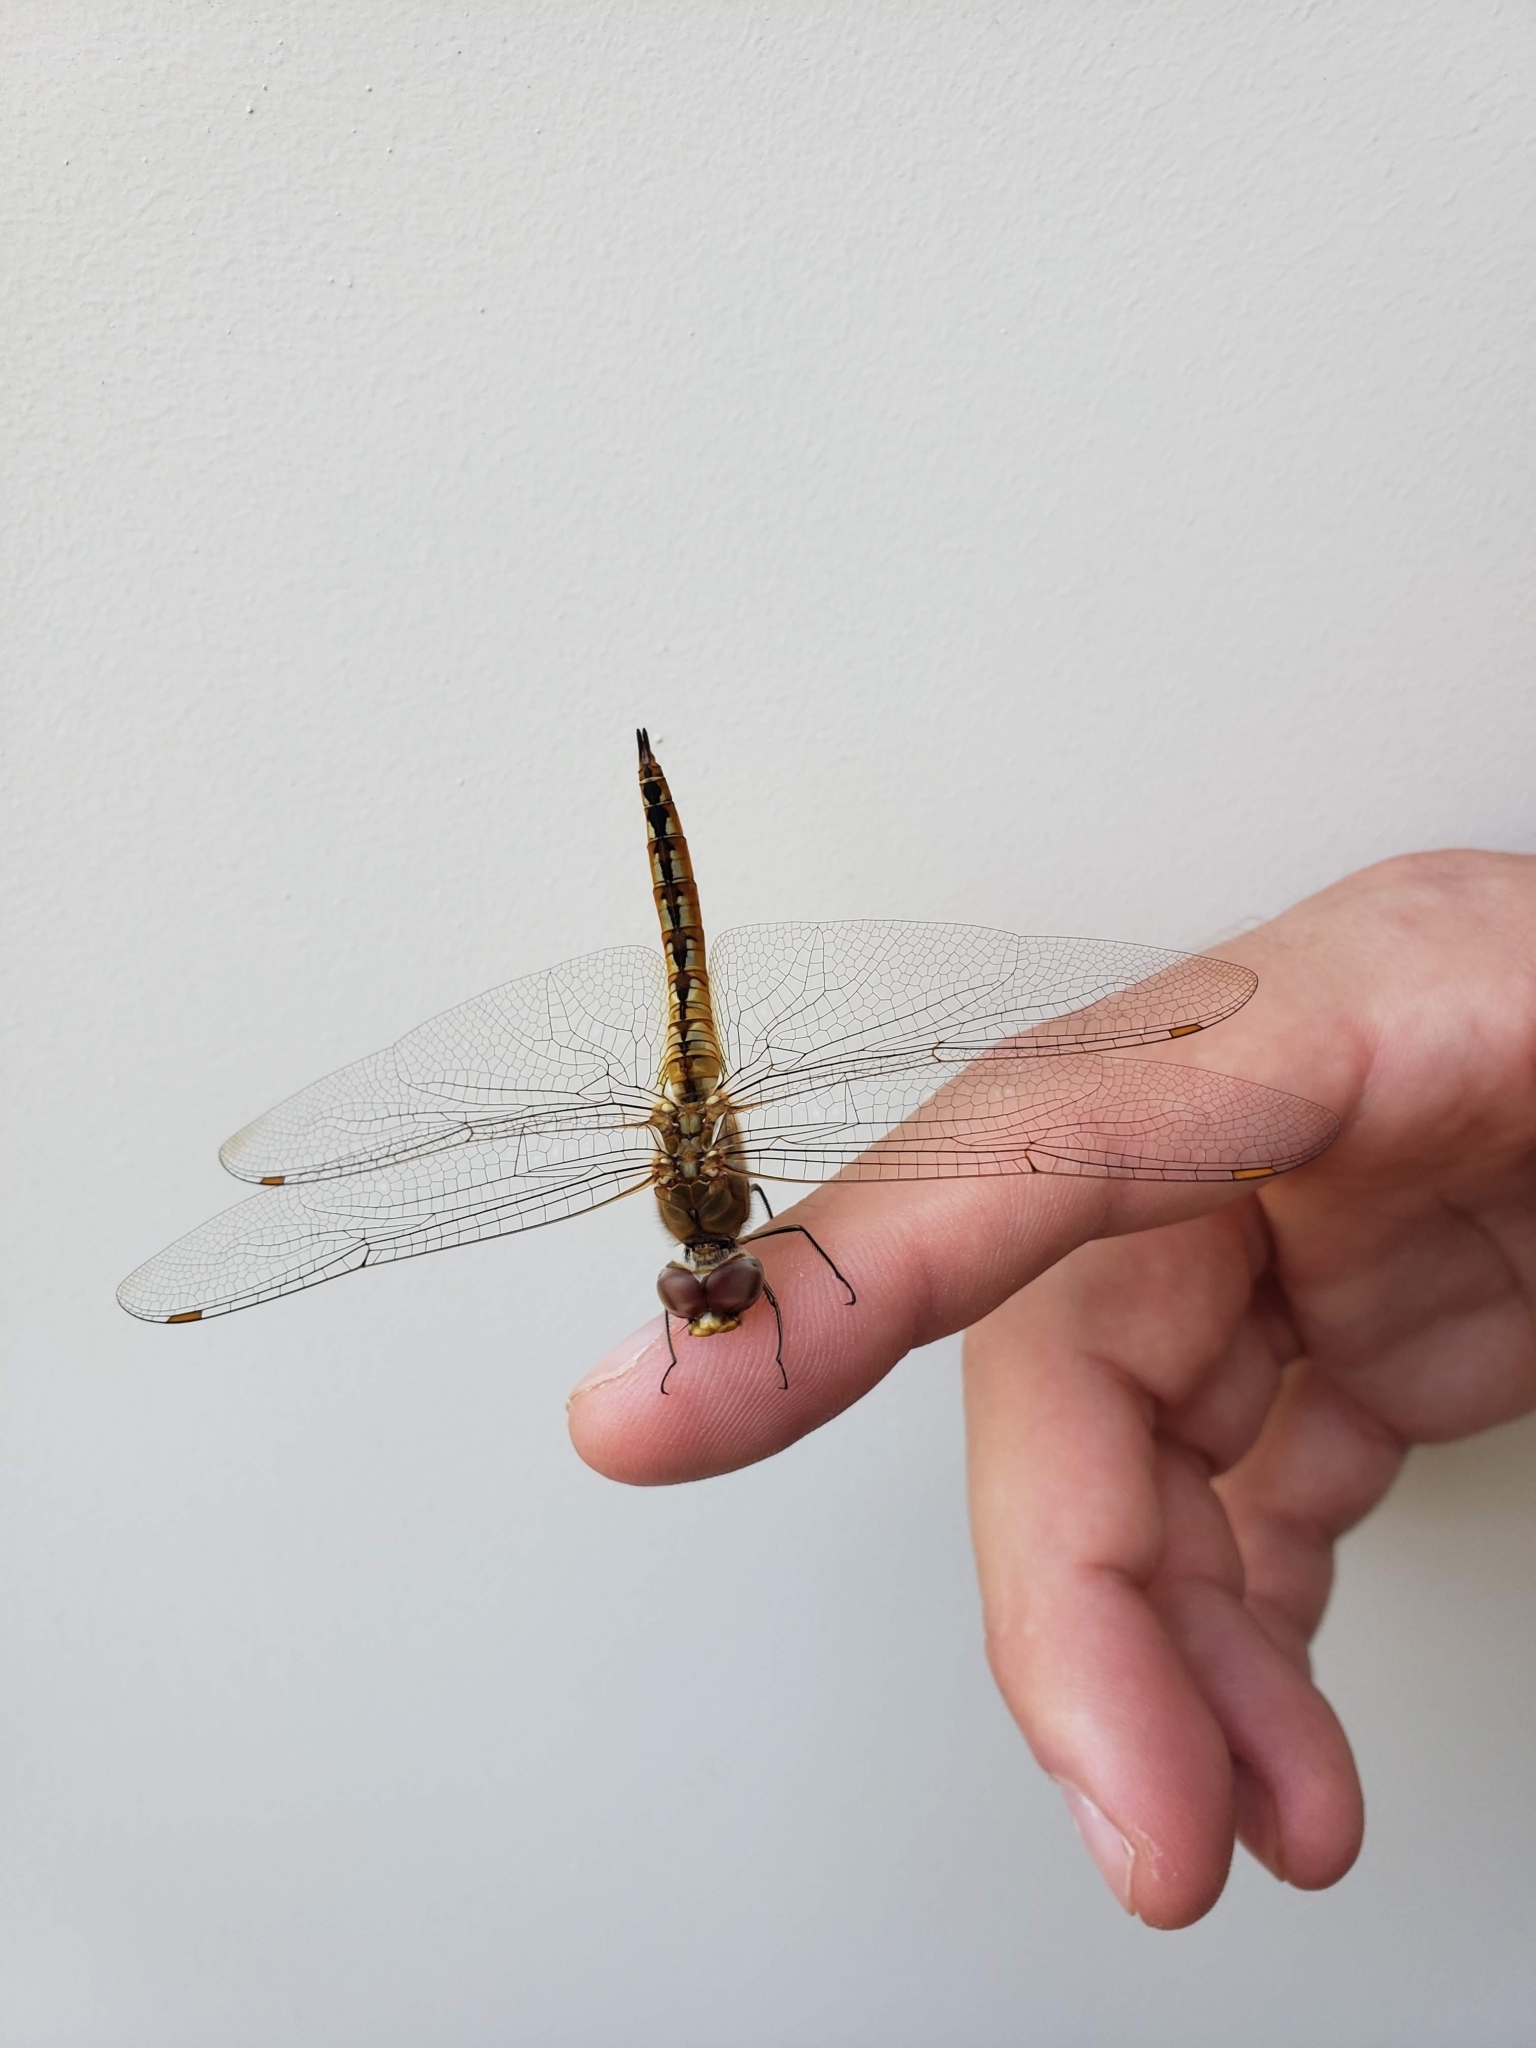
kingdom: Animalia
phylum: Arthropoda
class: Insecta
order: Odonata
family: Libellulidae
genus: Pantala
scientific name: Pantala flavescens
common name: Wandering glider
